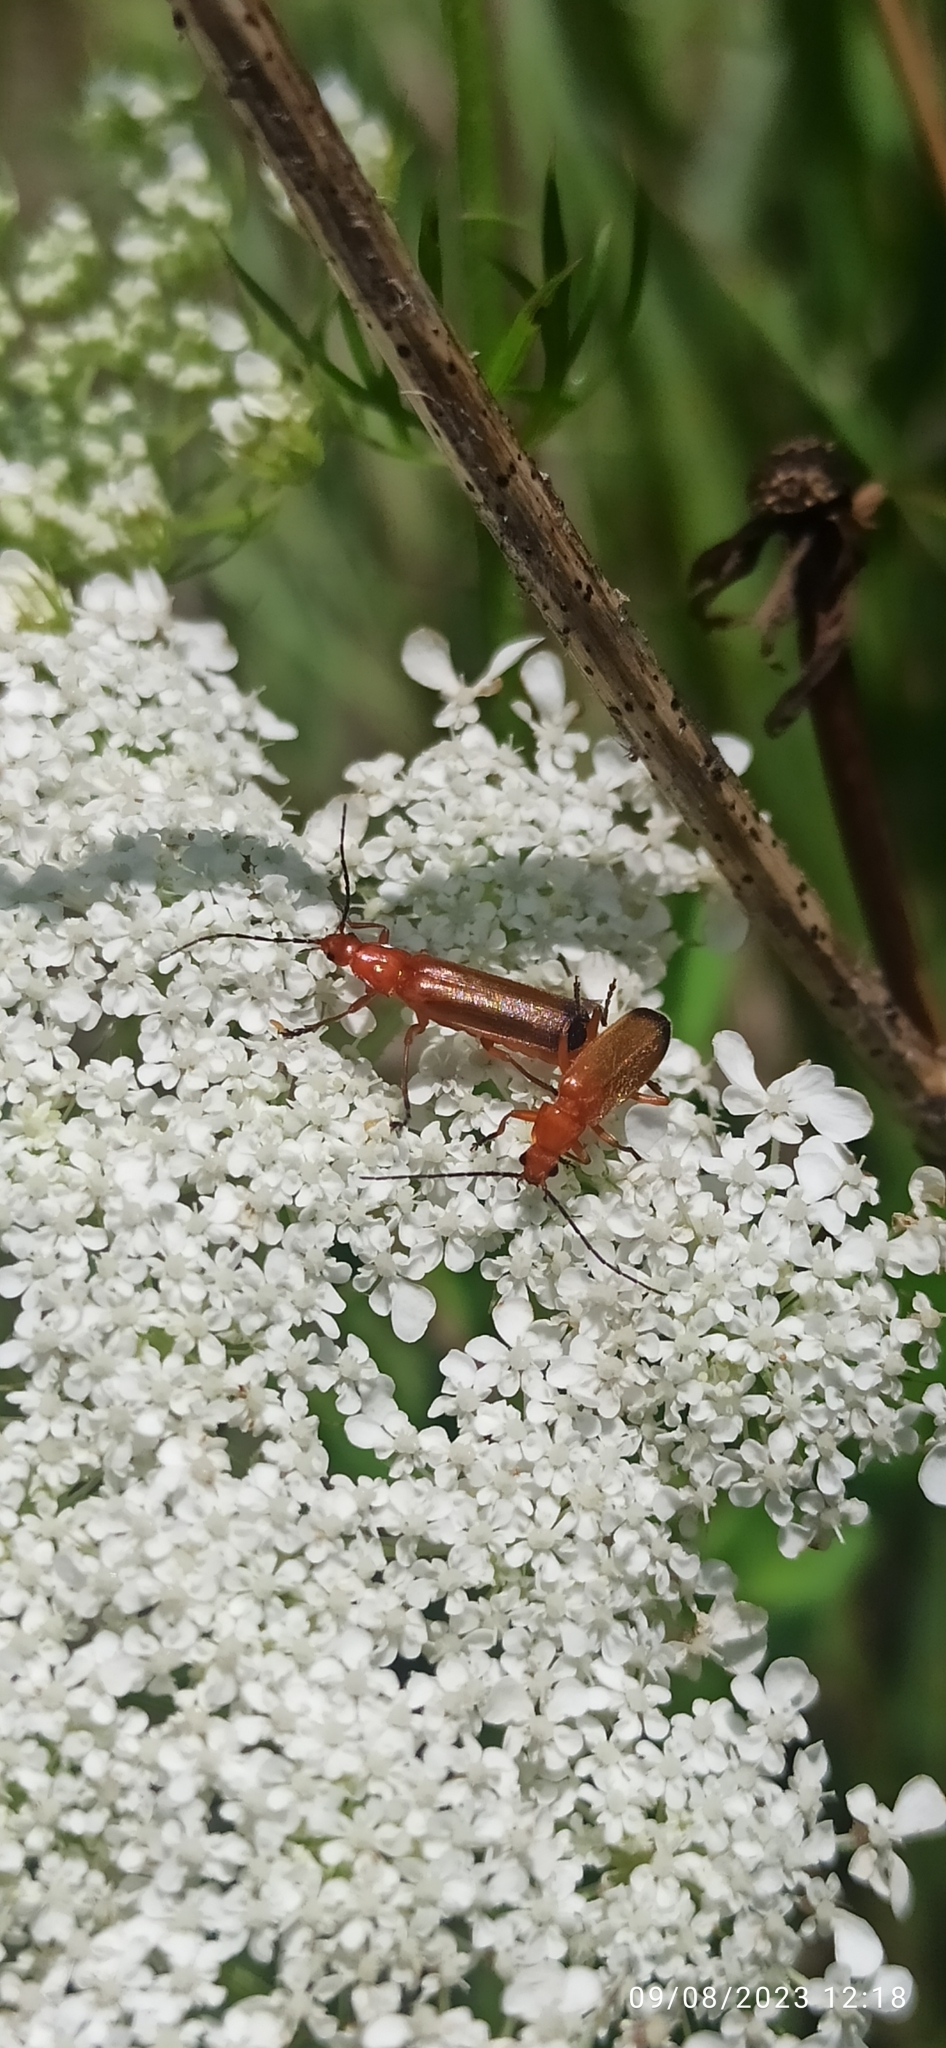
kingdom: Animalia
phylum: Arthropoda
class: Insecta
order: Coleoptera
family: Cantharidae
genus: Rhagonycha
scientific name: Rhagonycha fulva
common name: Common red soldier beetle
